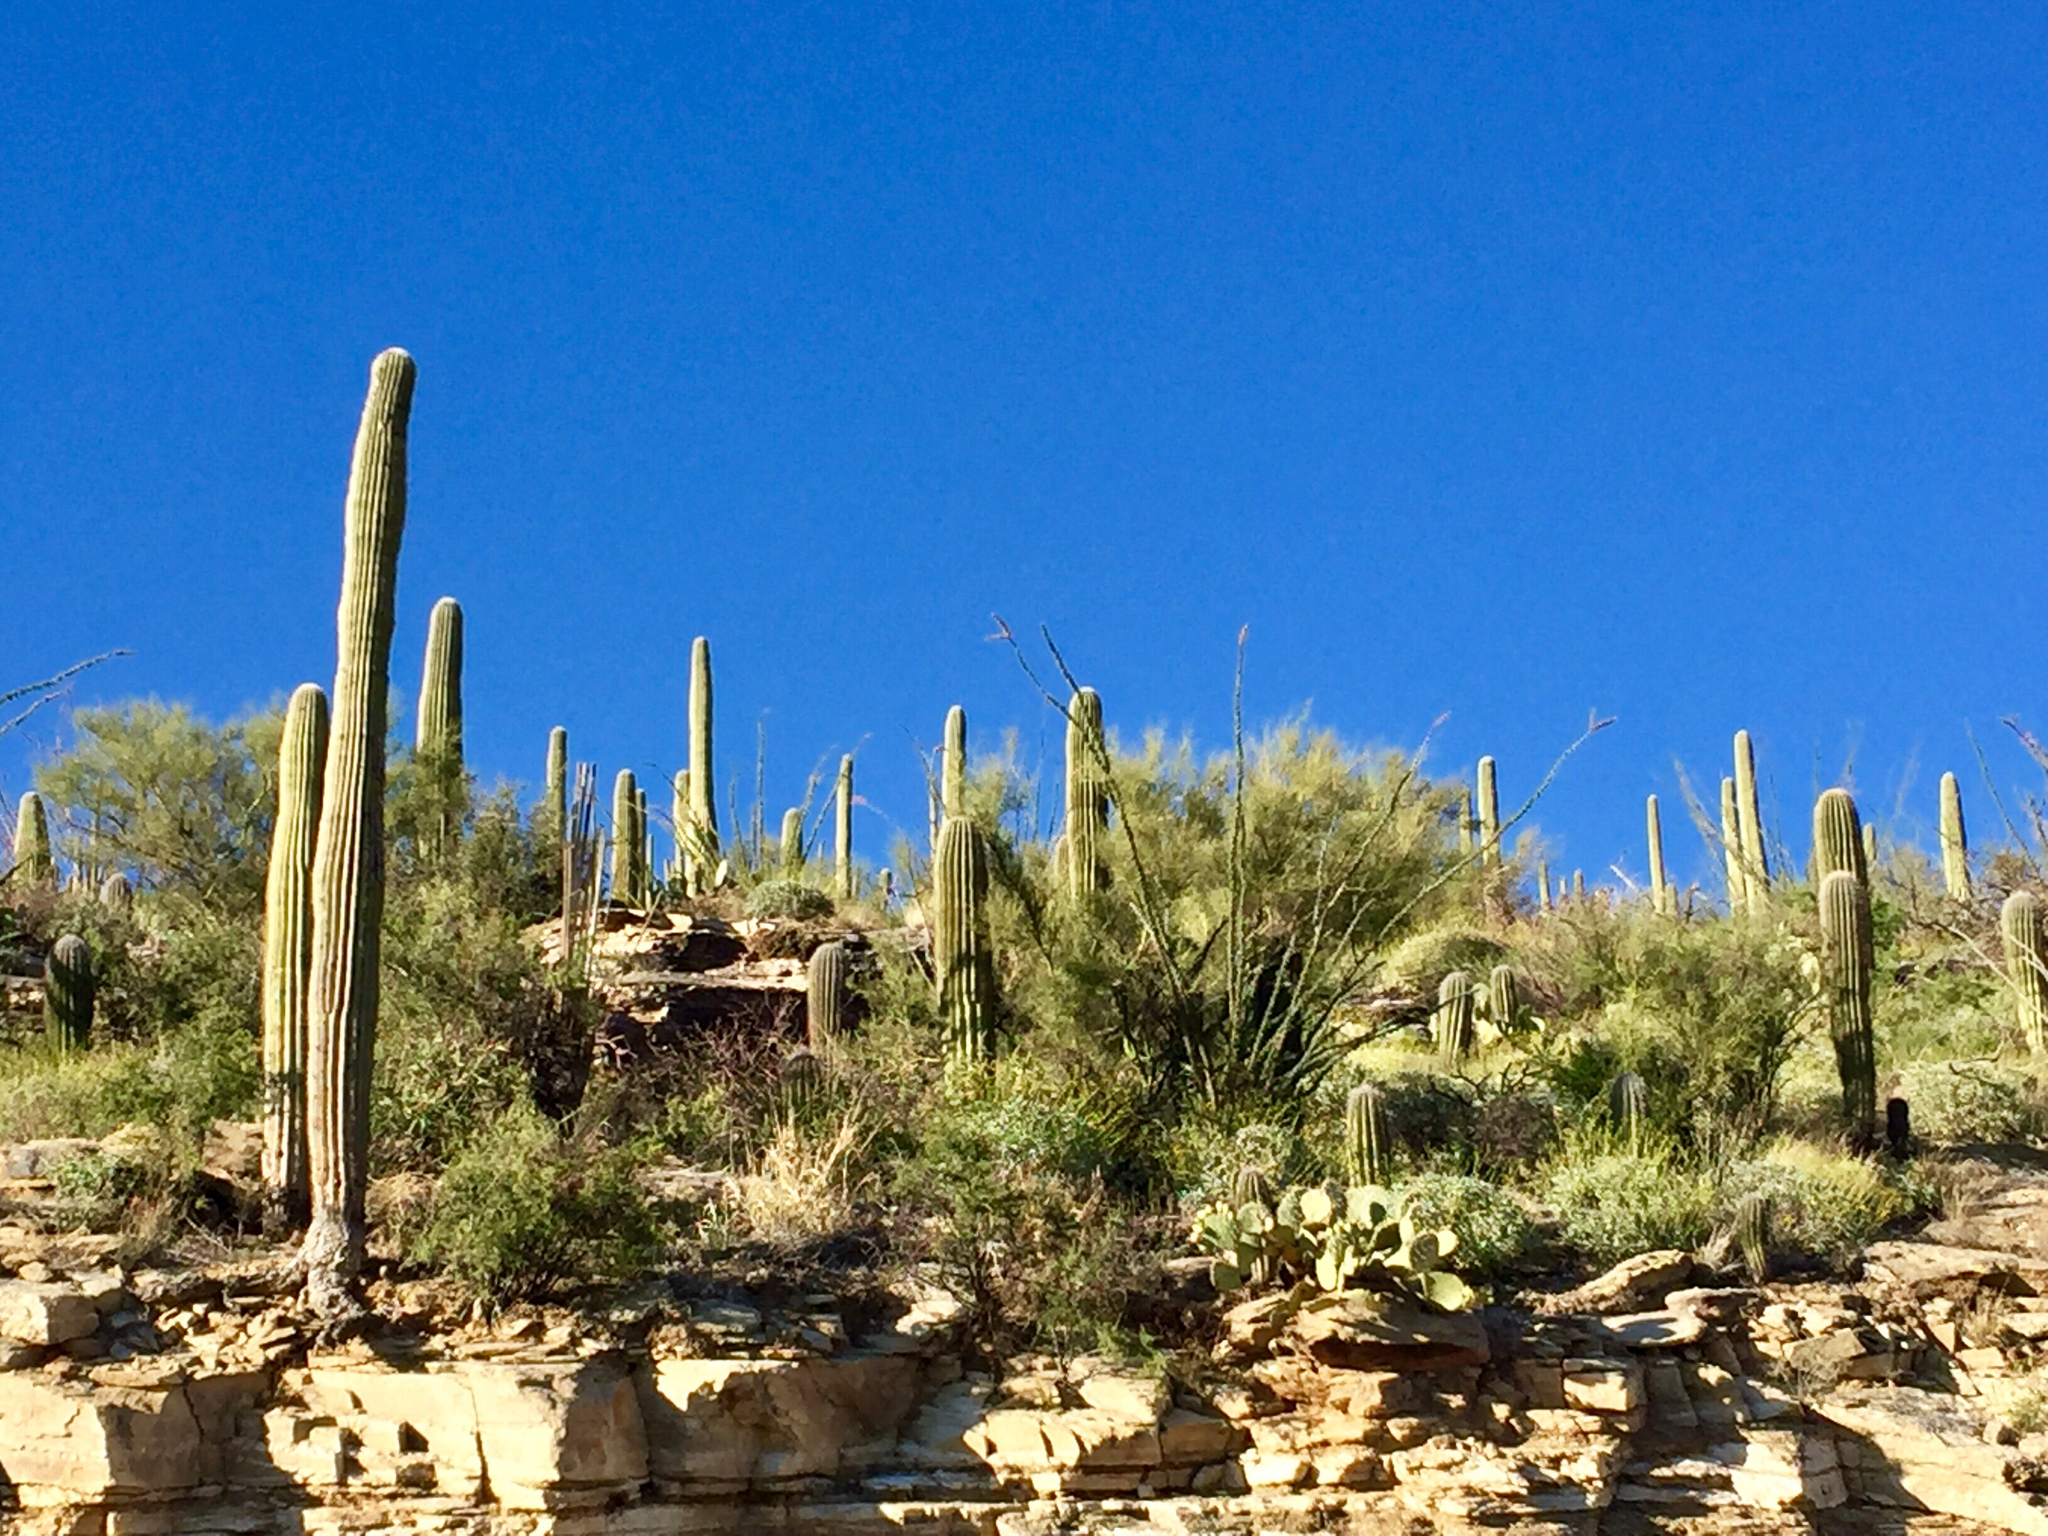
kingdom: Plantae
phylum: Tracheophyta
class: Magnoliopsida
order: Caryophyllales
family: Cactaceae
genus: Carnegiea
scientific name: Carnegiea gigantea
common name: Saguaro
